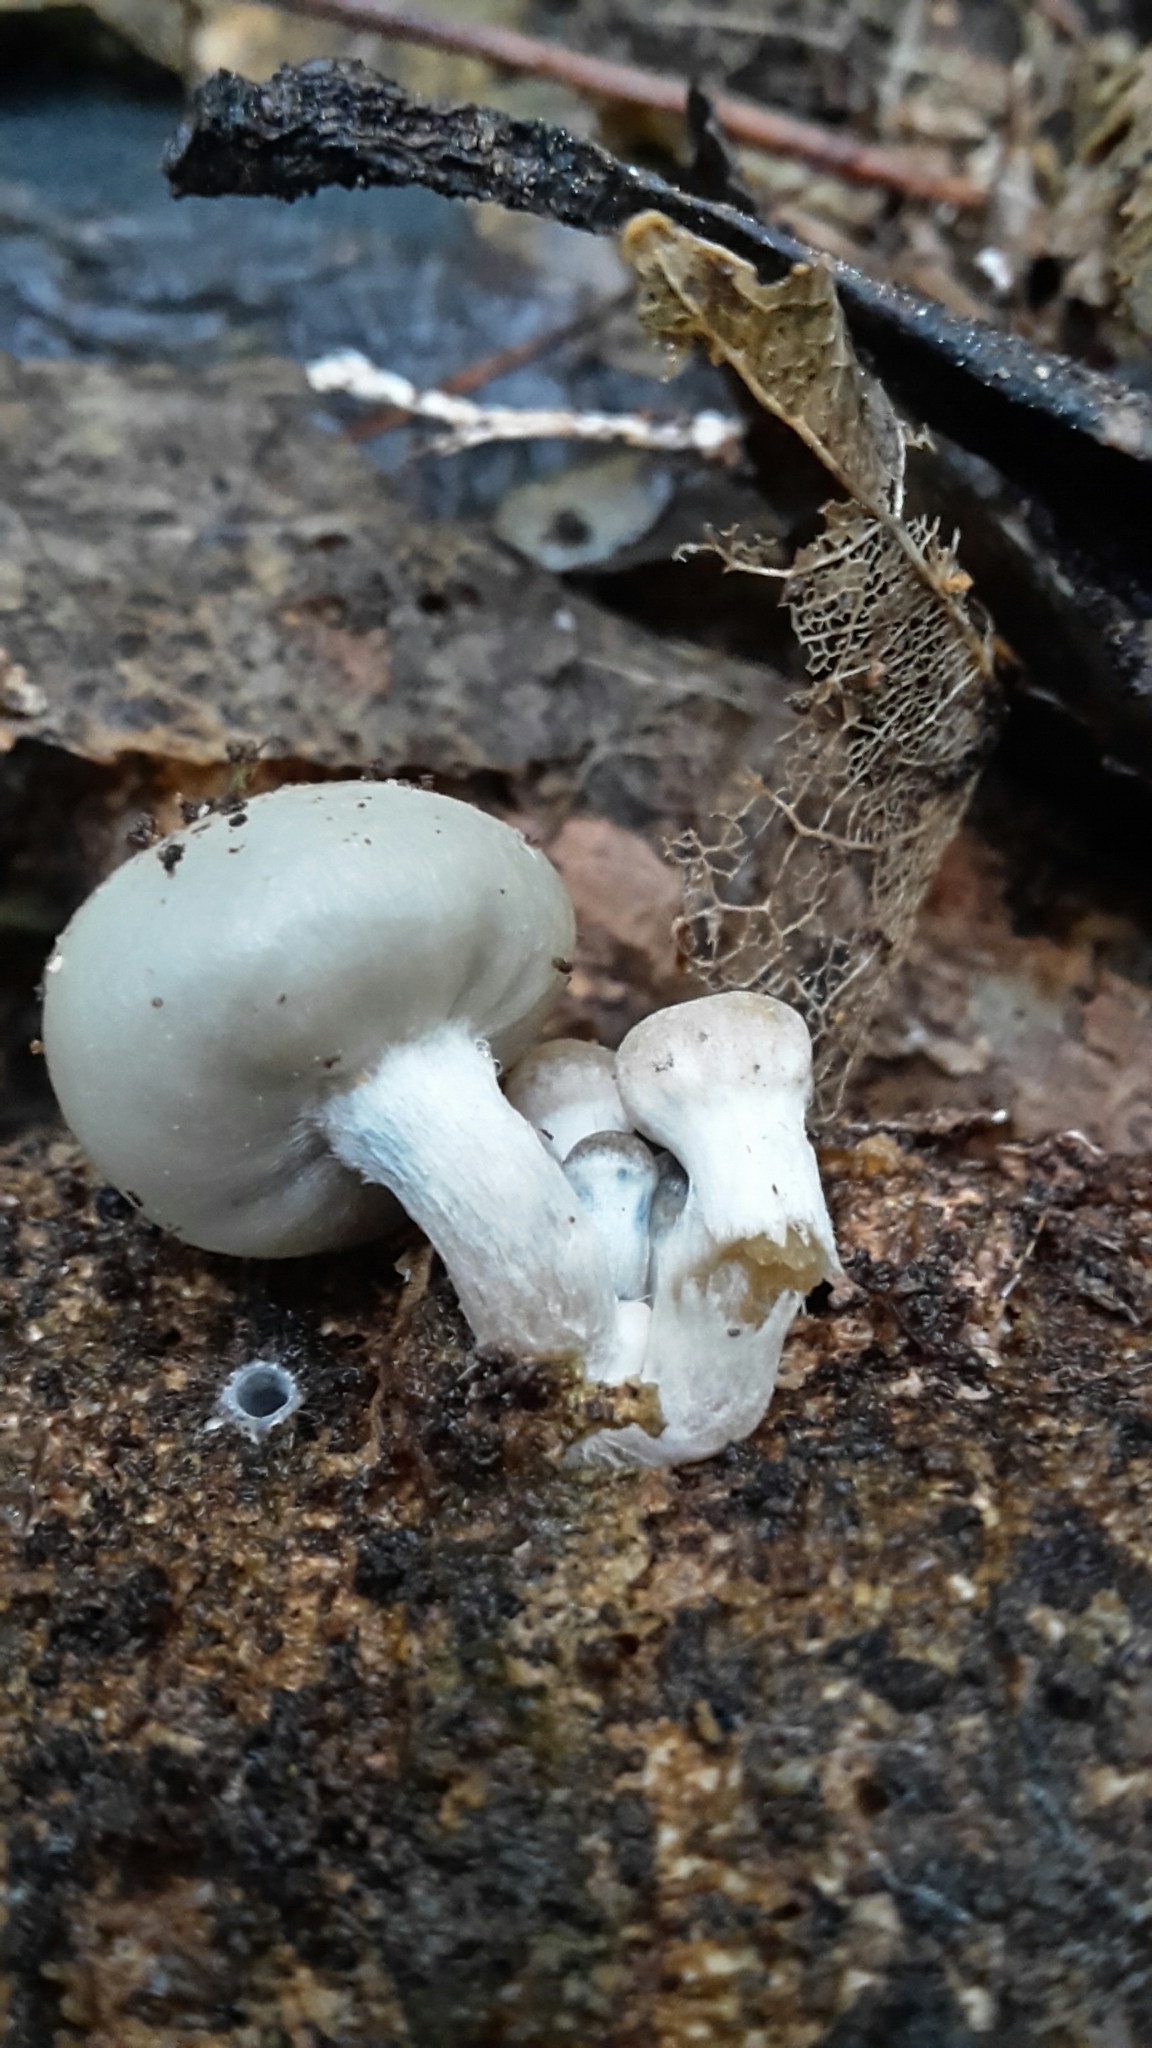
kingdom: Fungi
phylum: Basidiomycota
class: Agaricomycetes
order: Agaricales
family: Hymenogastraceae
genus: Psilocybe
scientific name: Psilocybe weraroa
